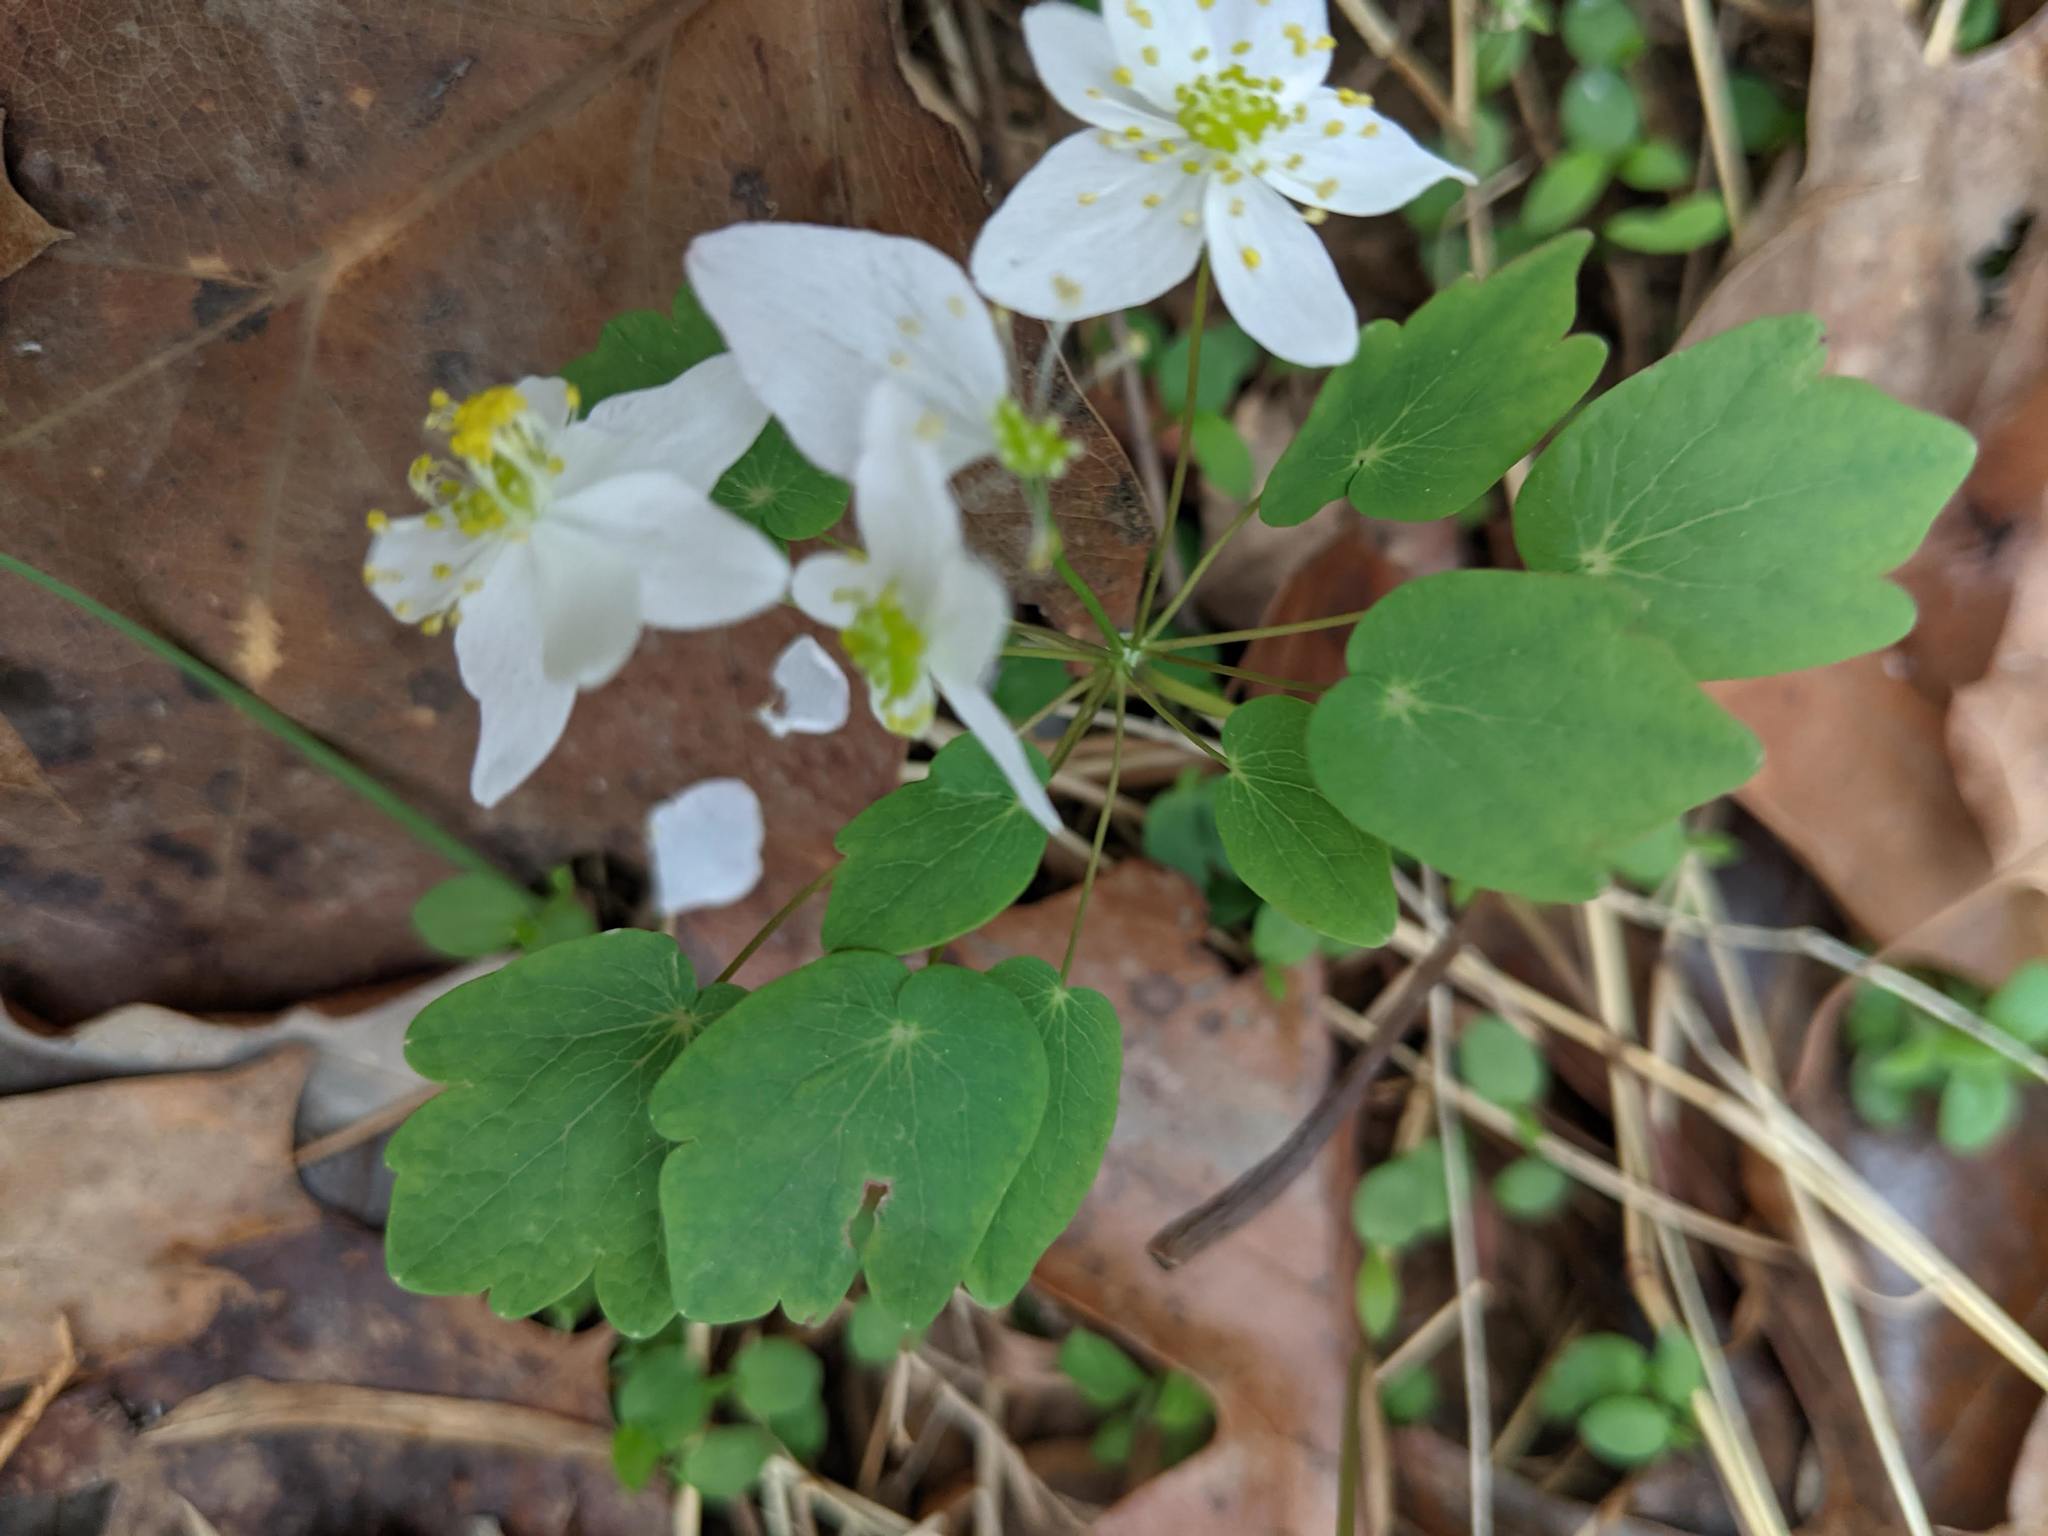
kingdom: Plantae
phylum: Tracheophyta
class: Magnoliopsida
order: Ranunculales
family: Ranunculaceae
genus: Thalictrum
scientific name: Thalictrum thalictroides
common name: Rue-anemone
